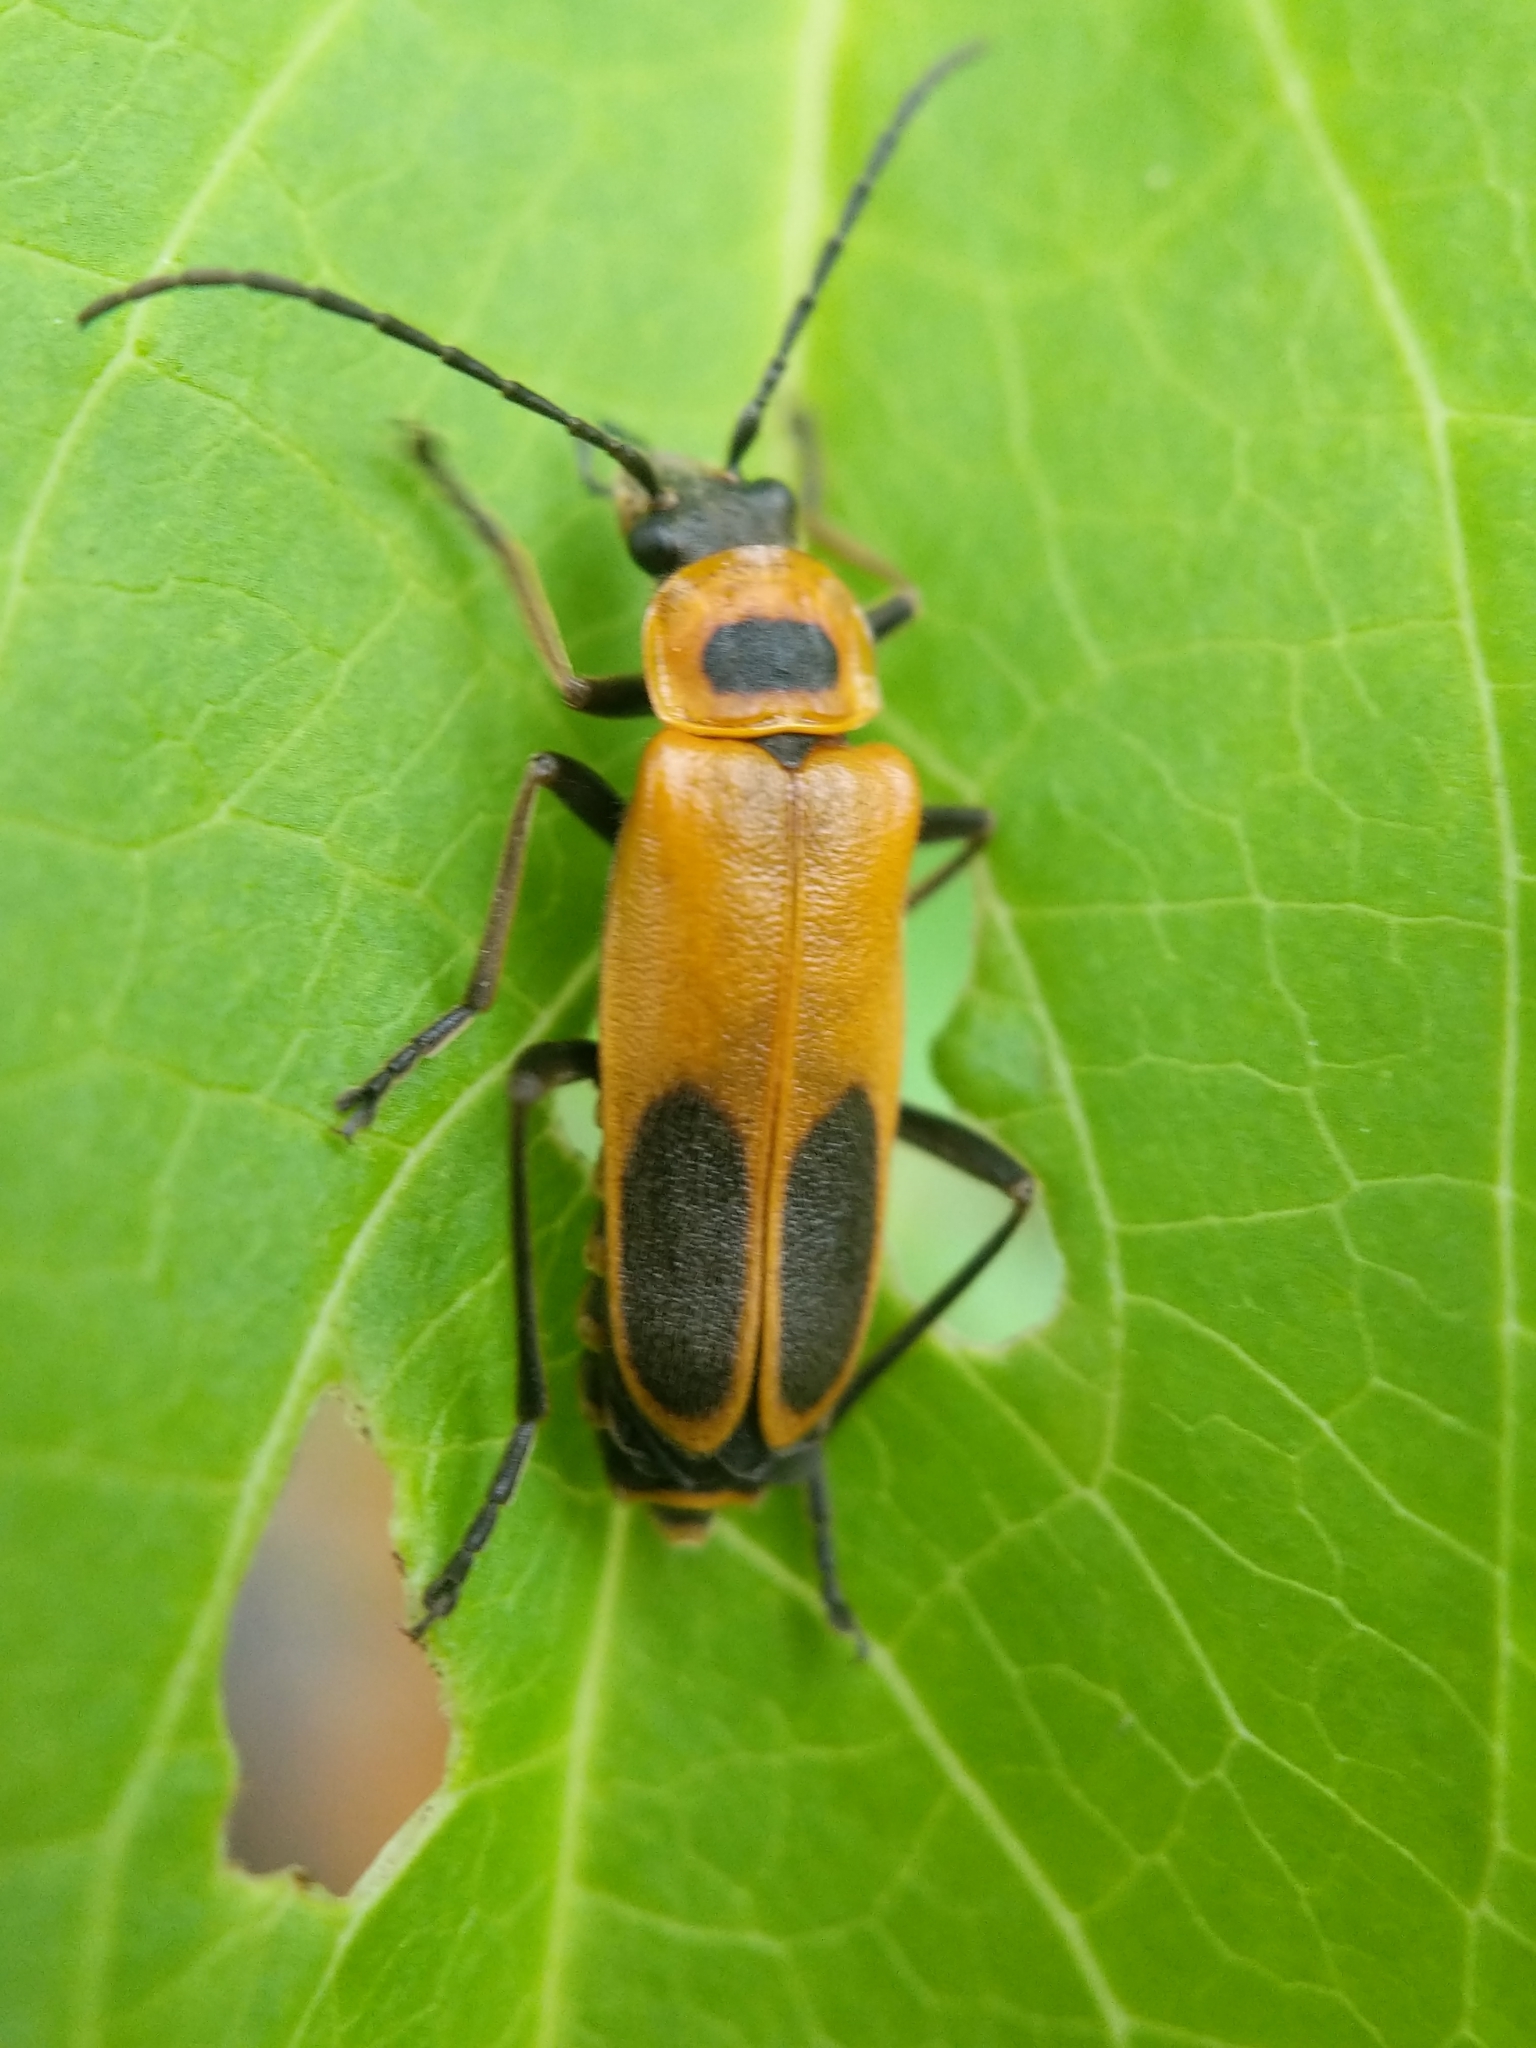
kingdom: Animalia
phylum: Arthropoda
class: Insecta
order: Coleoptera
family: Cantharidae
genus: Chauliognathus
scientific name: Chauliognathus pensylvanicus
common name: Goldenrod soldier beetle
